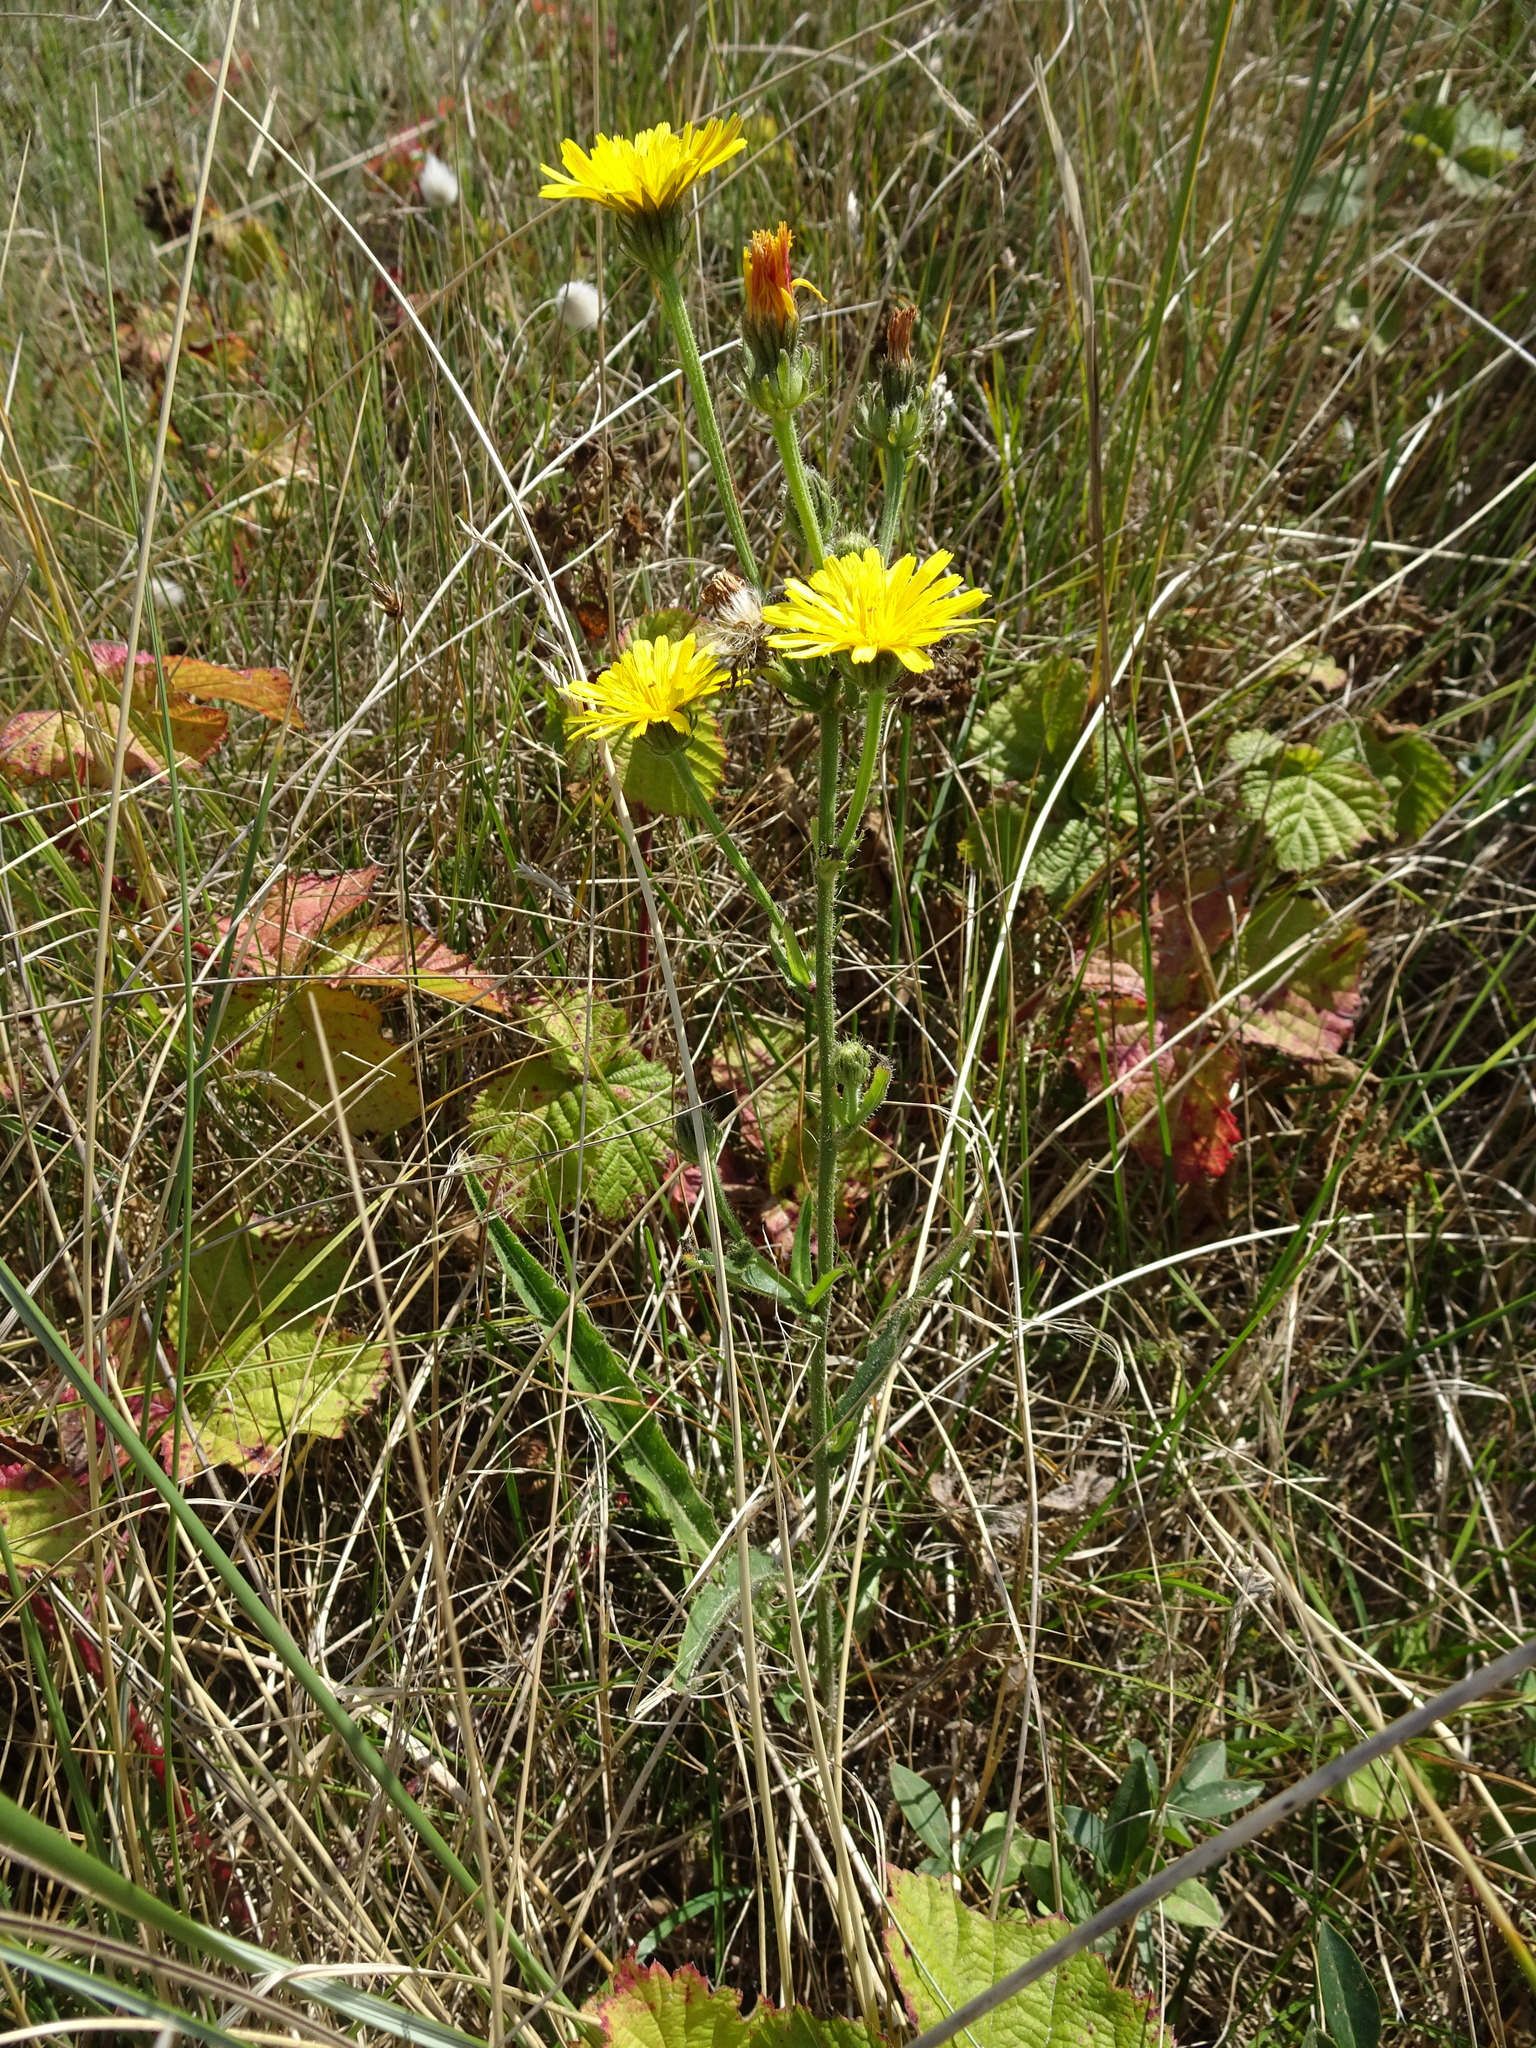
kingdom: Plantae
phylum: Tracheophyta
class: Magnoliopsida
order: Asterales
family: Asteraceae
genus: Picris
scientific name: Picris hieracioides
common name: Hawkweed oxtongue
